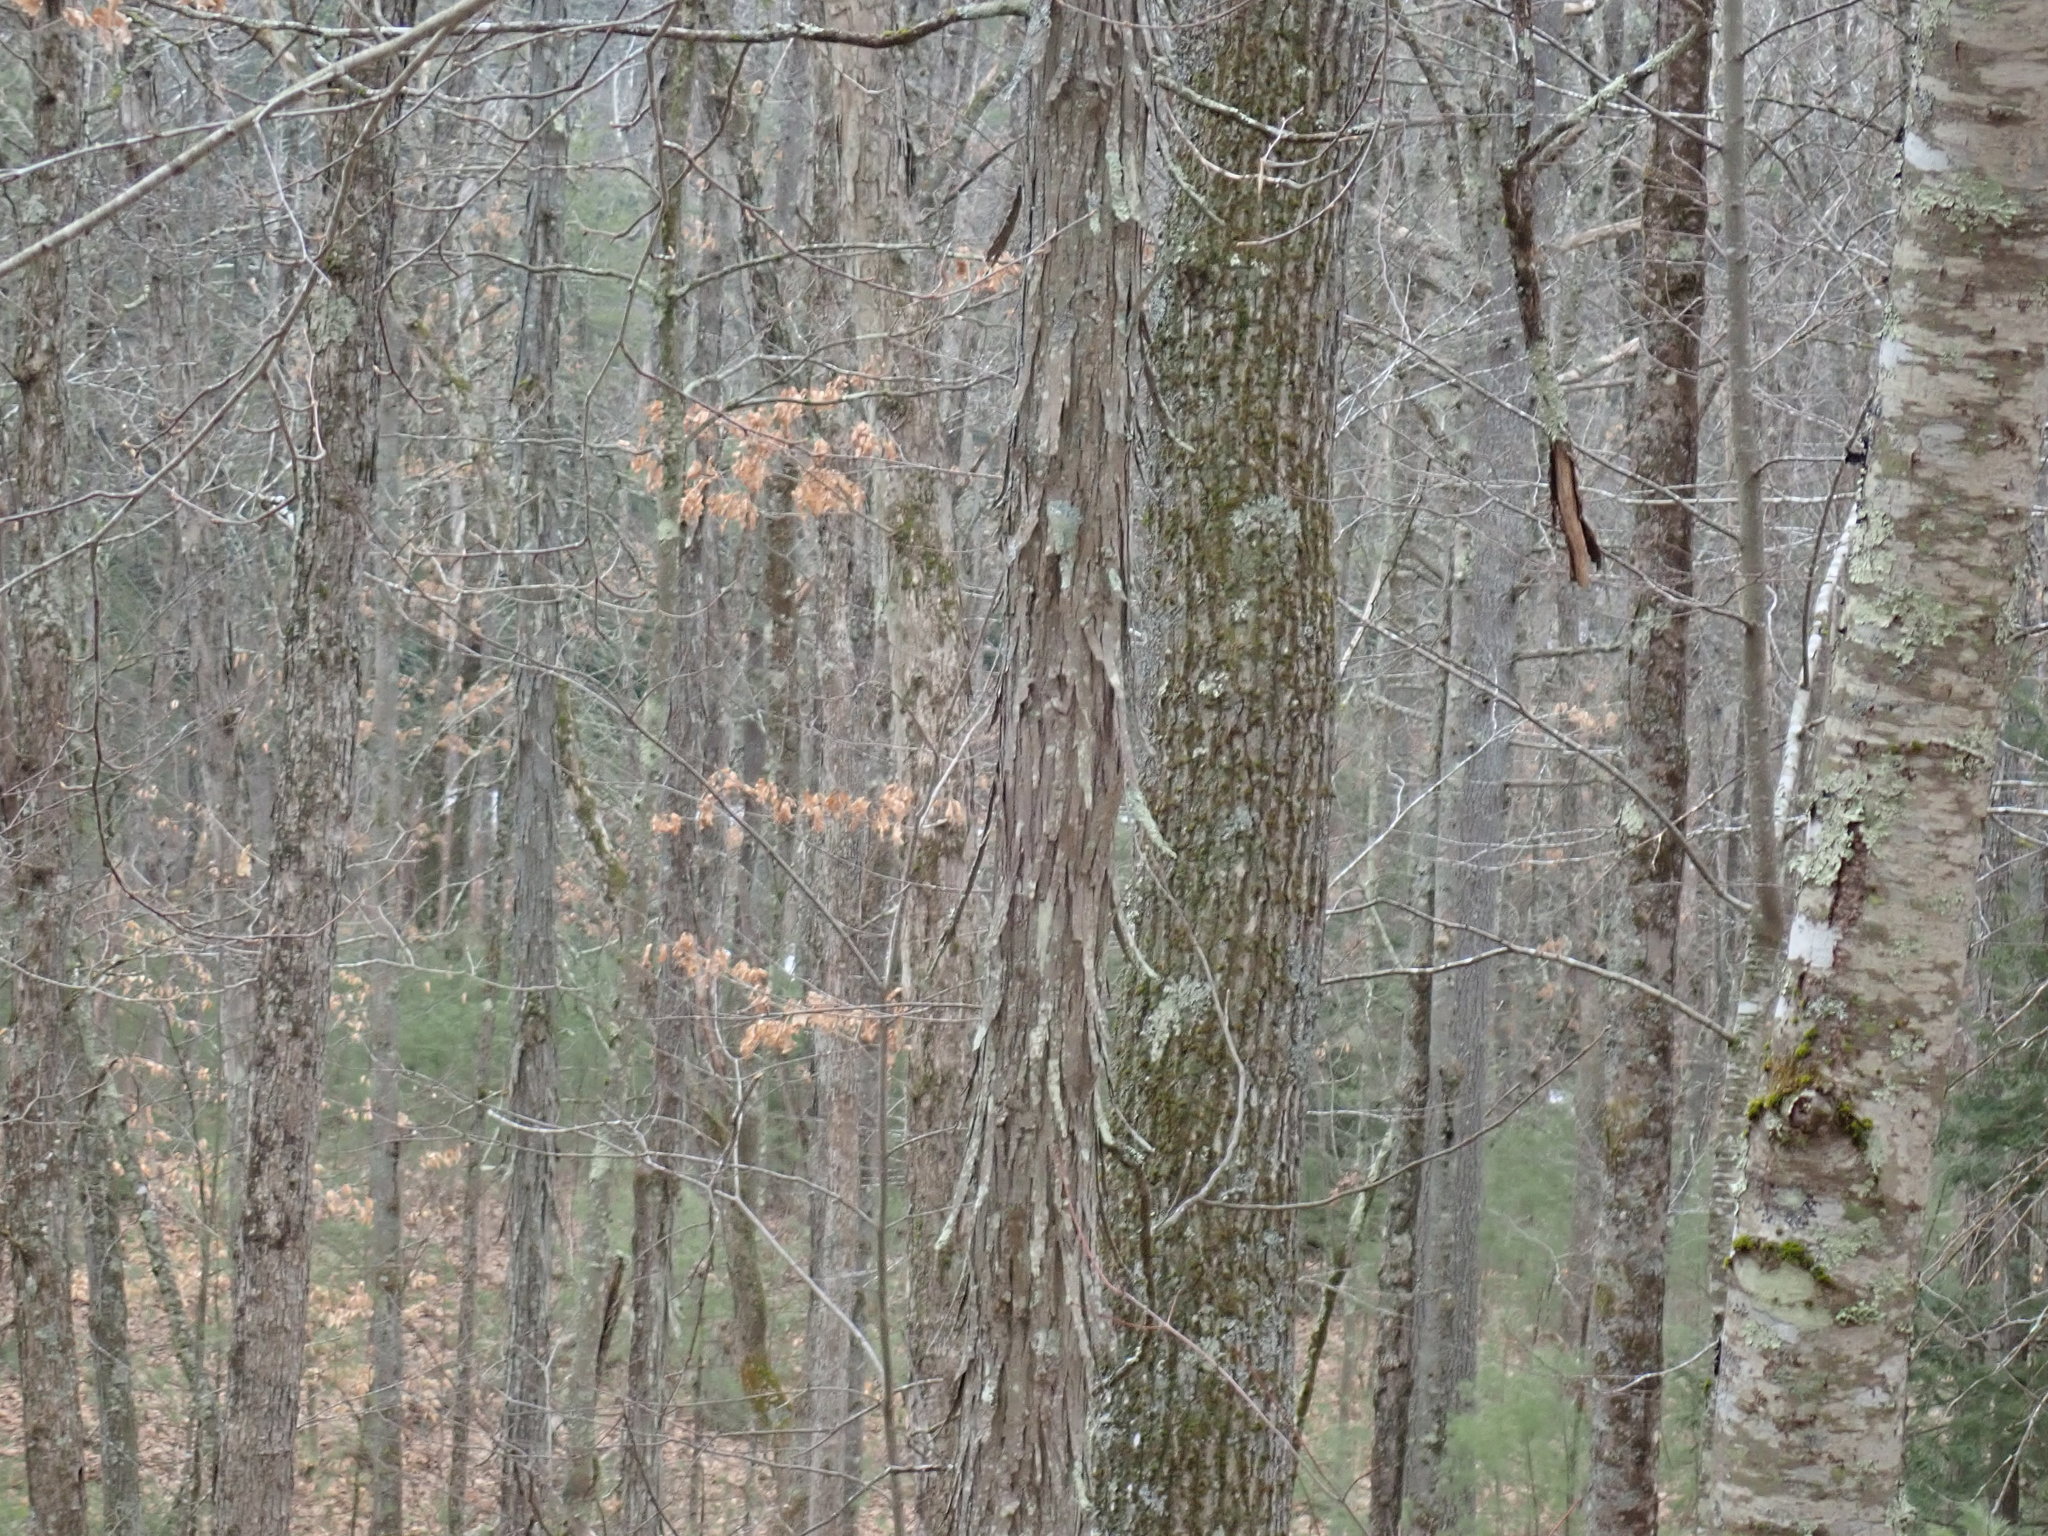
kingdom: Plantae
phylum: Tracheophyta
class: Magnoliopsida
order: Fagales
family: Juglandaceae
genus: Carya
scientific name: Carya ovata
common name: Shagbark hickory
